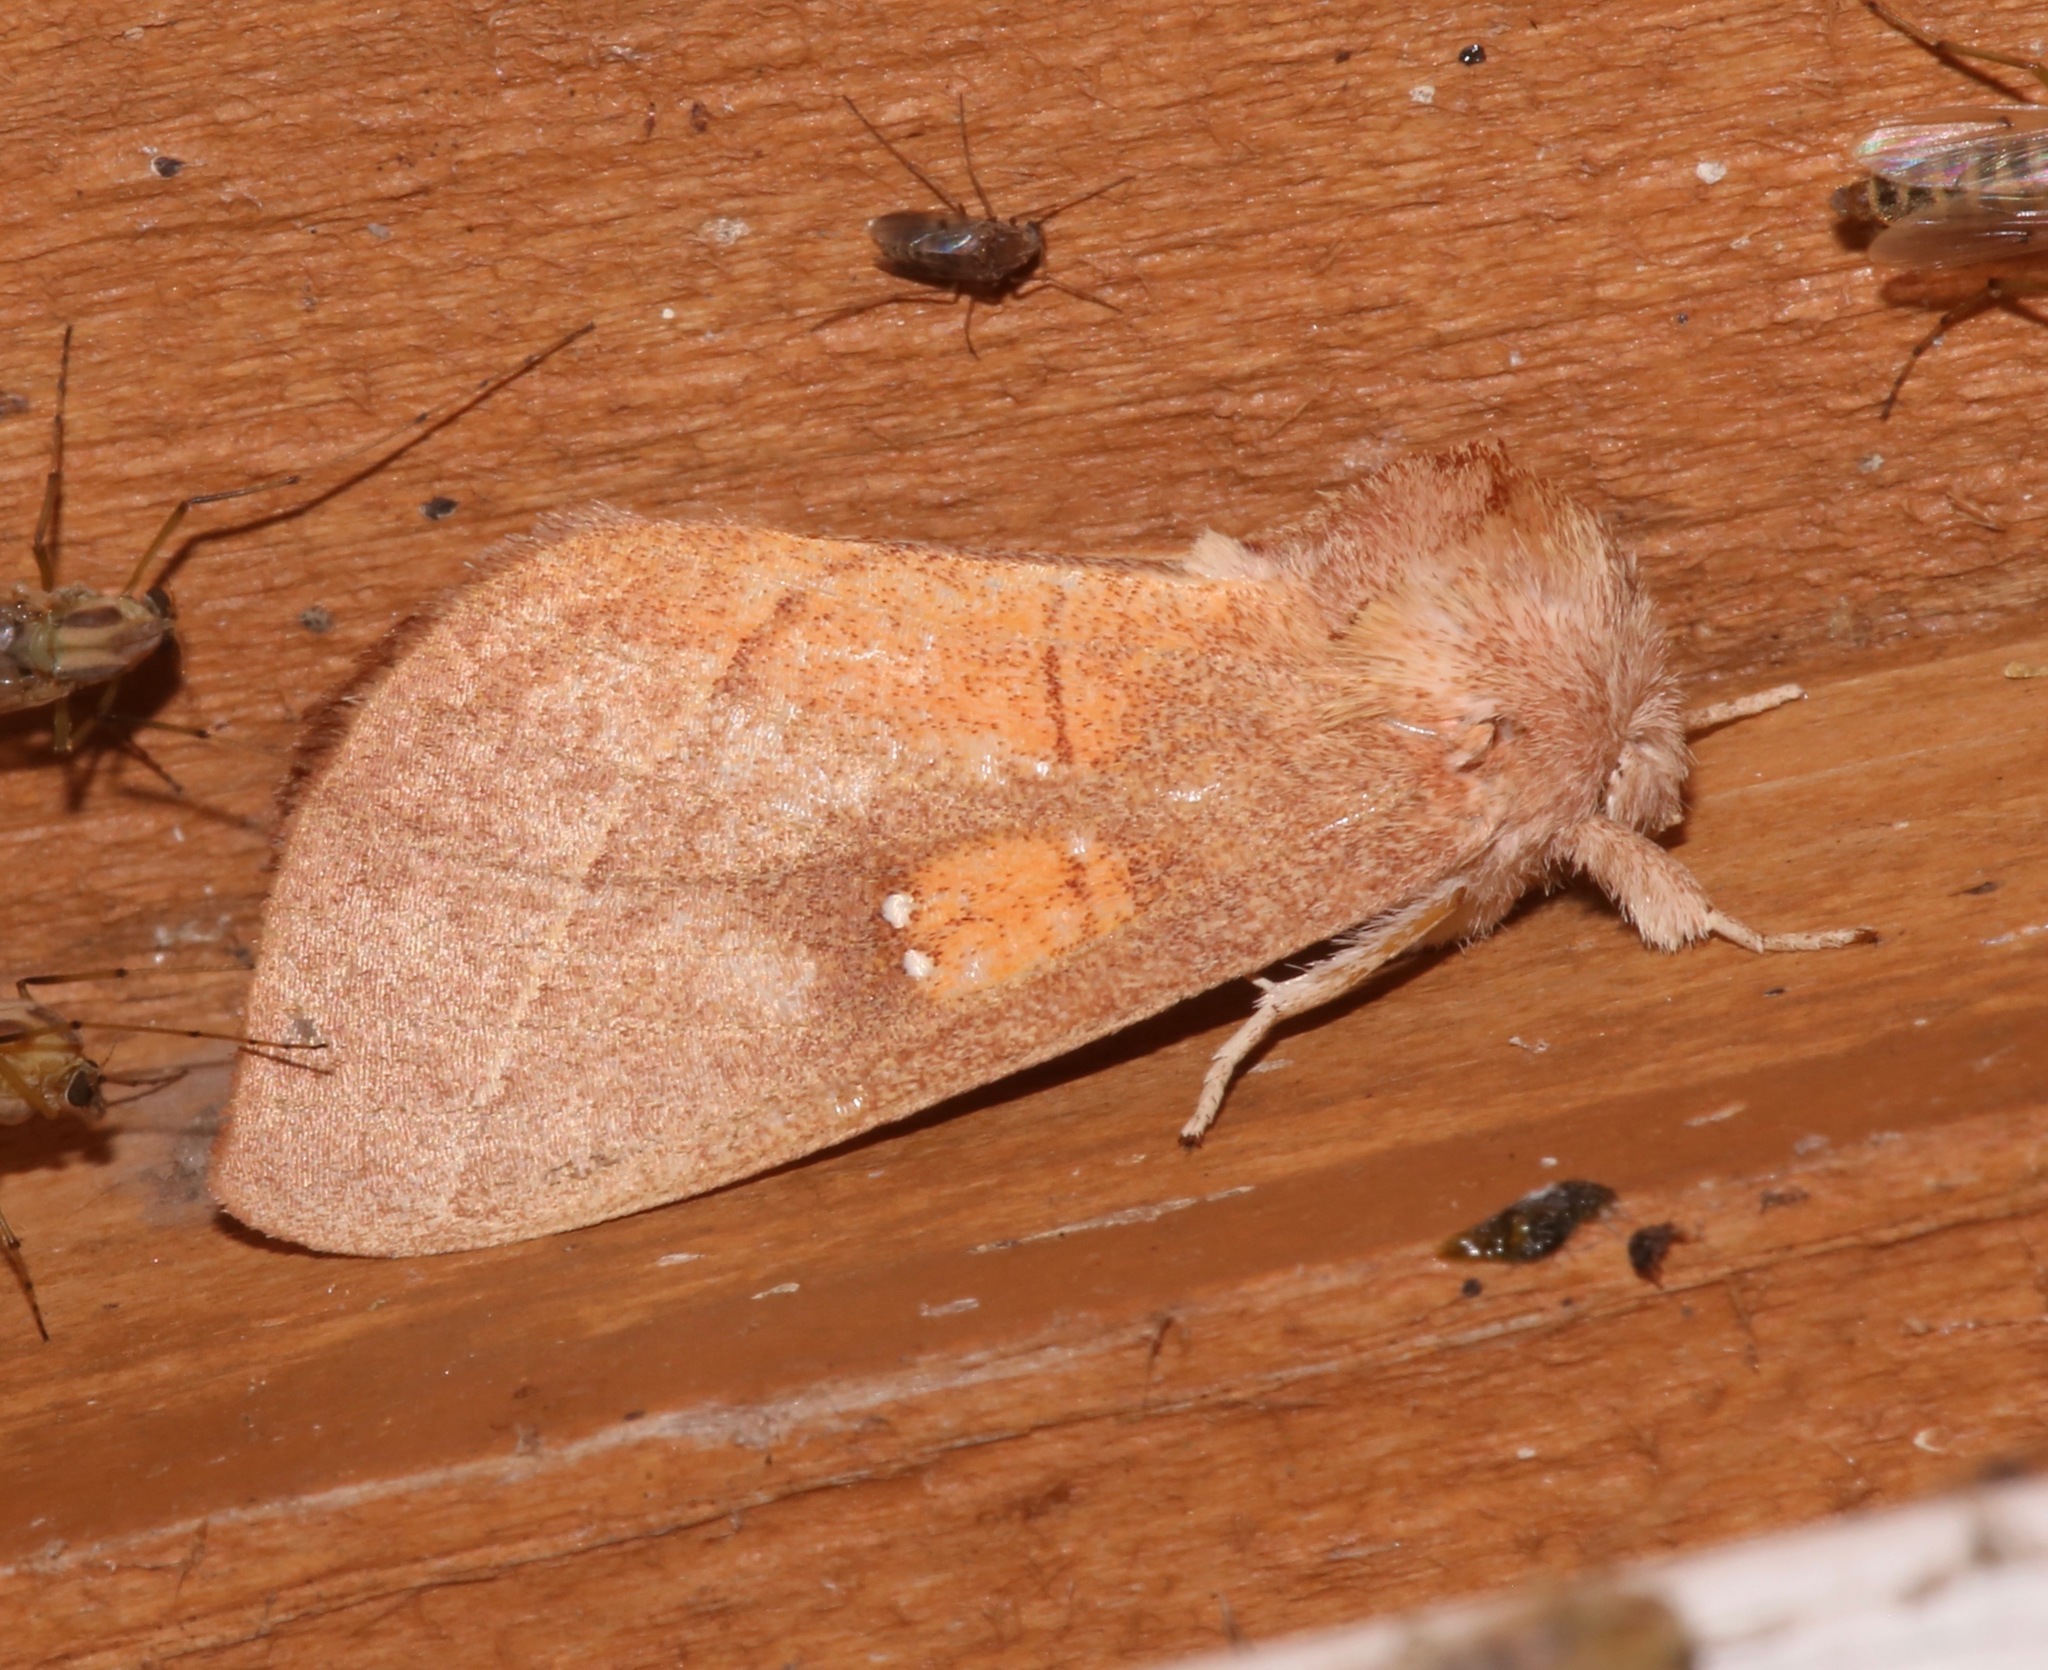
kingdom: Animalia
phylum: Arthropoda
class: Insecta
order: Lepidoptera
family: Notodontidae
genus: Nadata
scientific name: Nadata gibbosa
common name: White-dotted prominent
